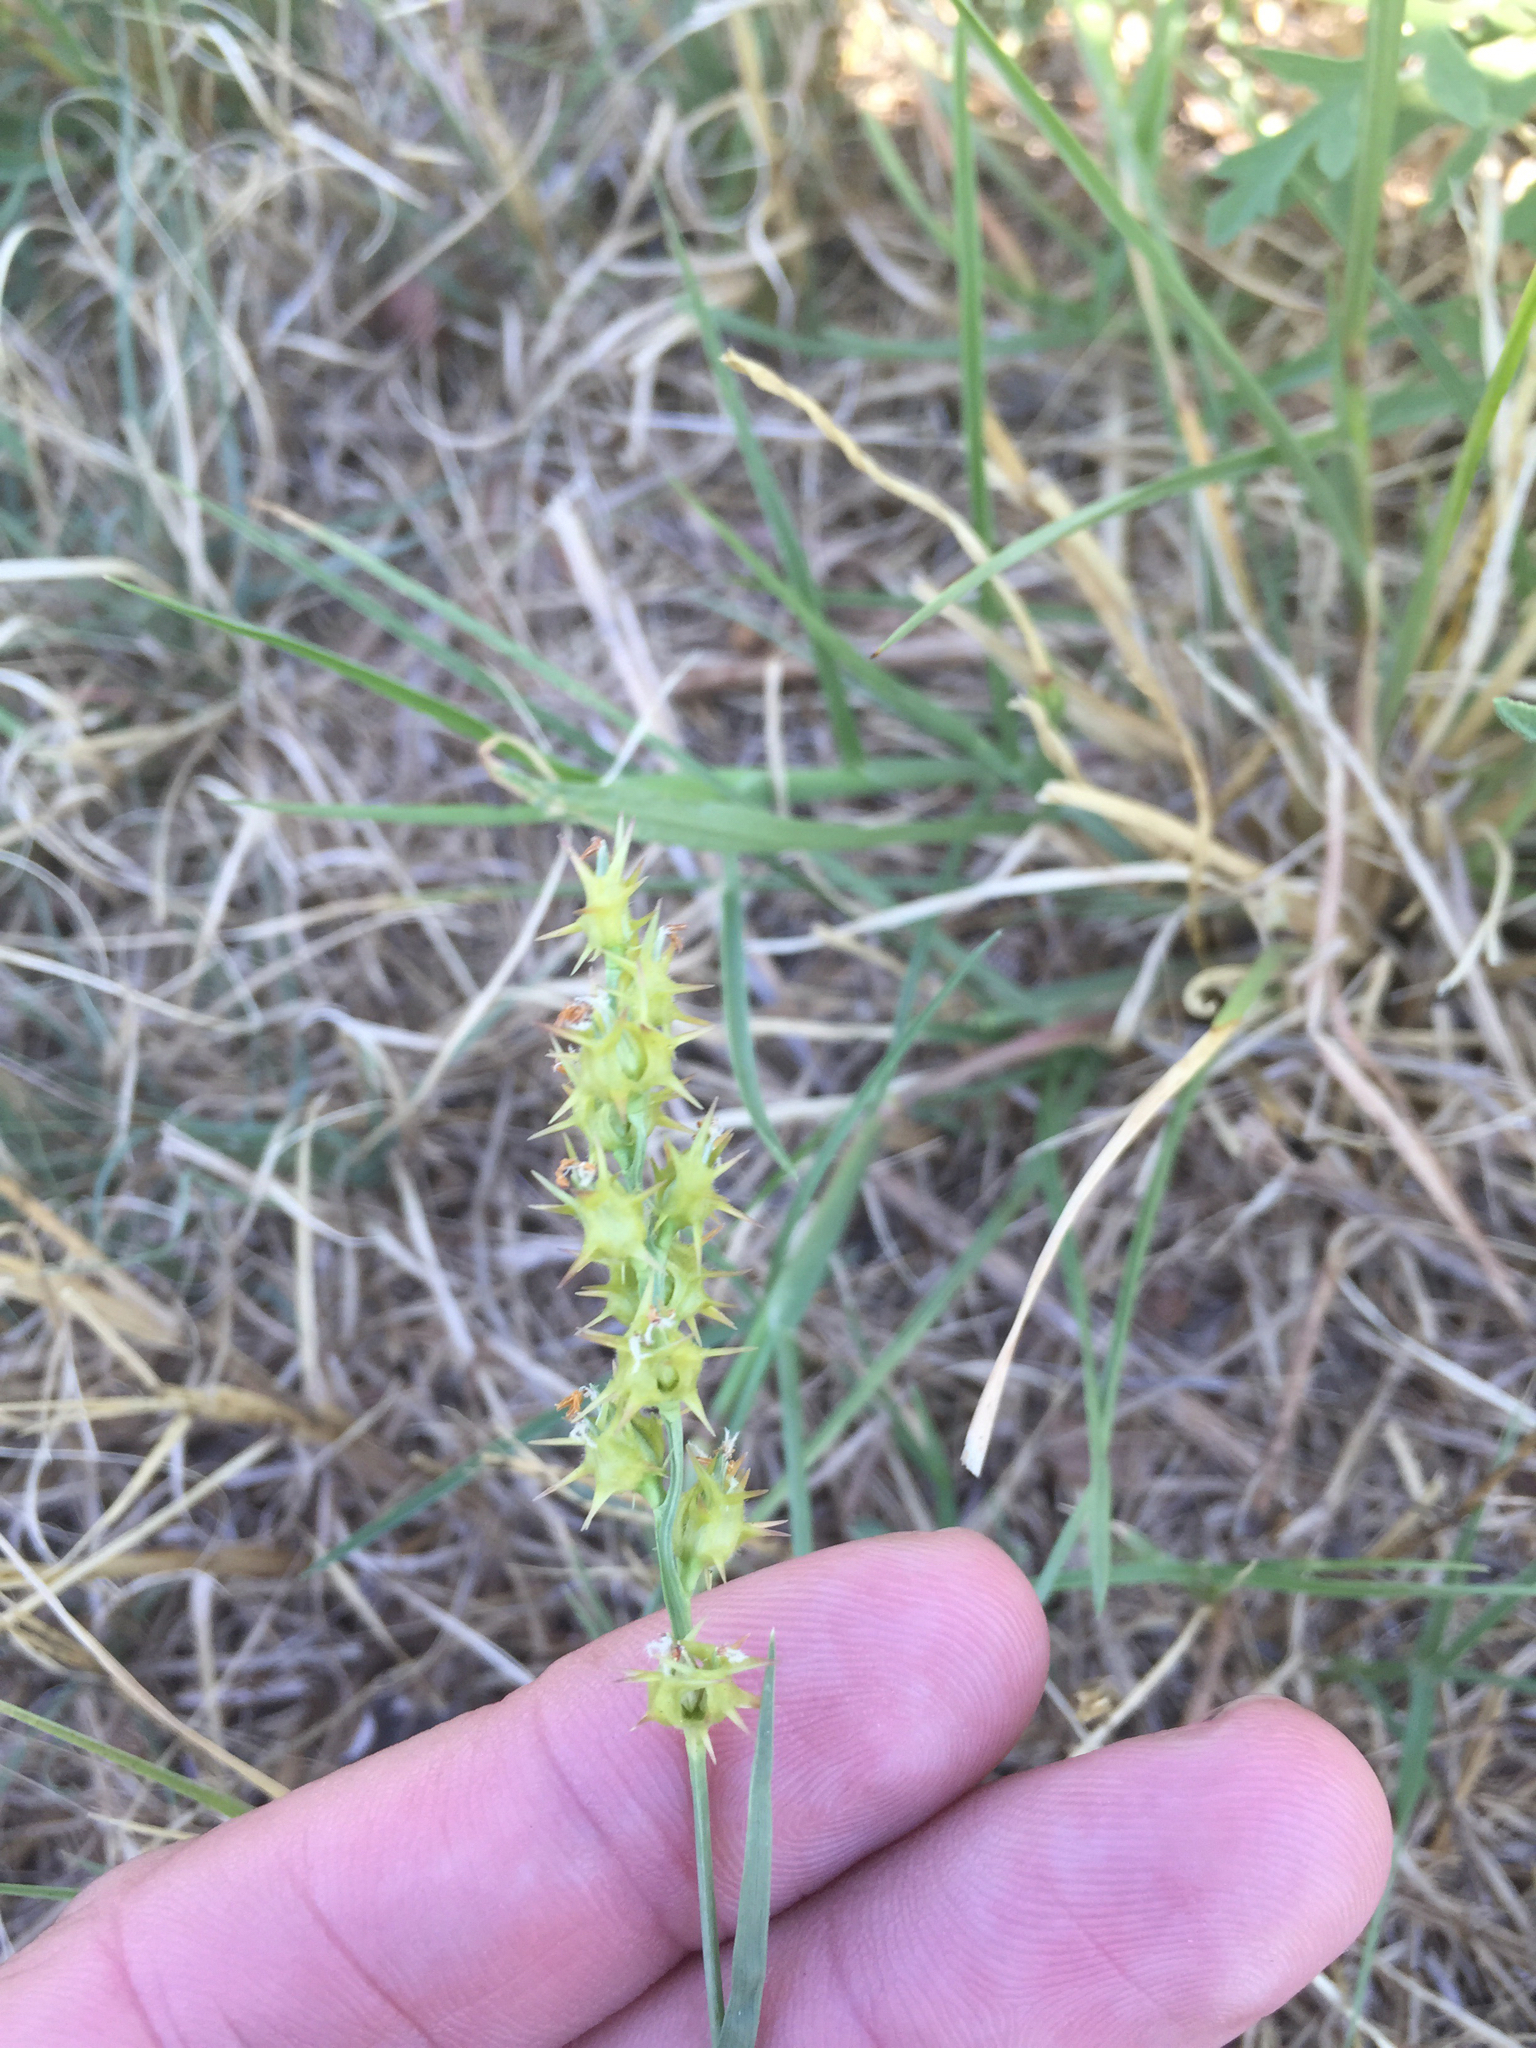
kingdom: Plantae
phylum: Tracheophyta
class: Liliopsida
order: Poales
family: Poaceae
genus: Cenchrus
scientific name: Cenchrus spinifex
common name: Coast sandbur
